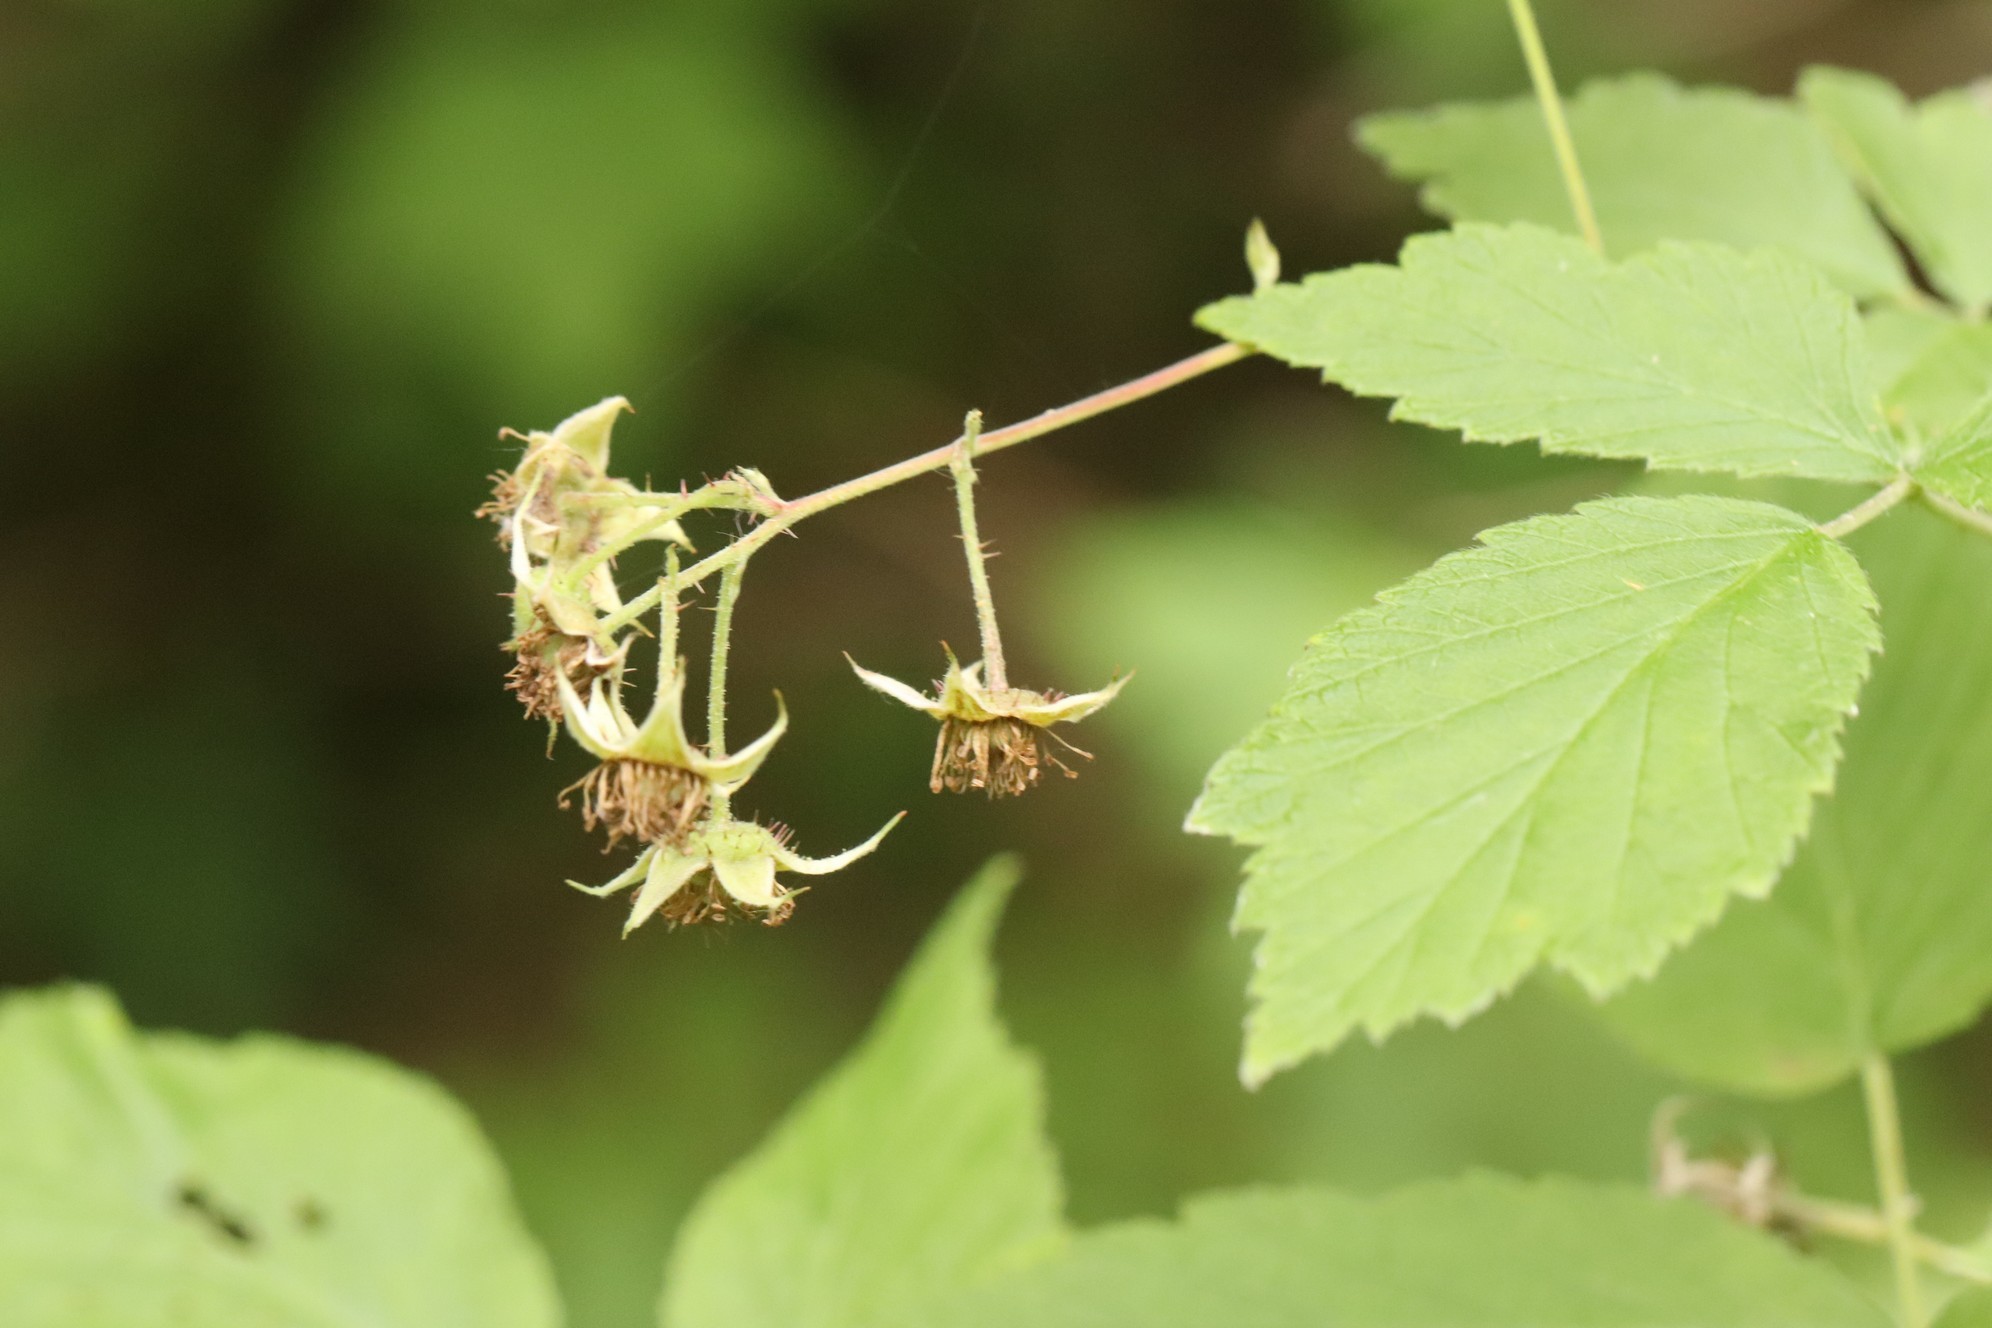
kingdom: Plantae
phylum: Tracheophyta
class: Magnoliopsida
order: Rosales
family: Rosaceae
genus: Rubus
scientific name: Rubus sachalinensis
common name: Red raspberry
